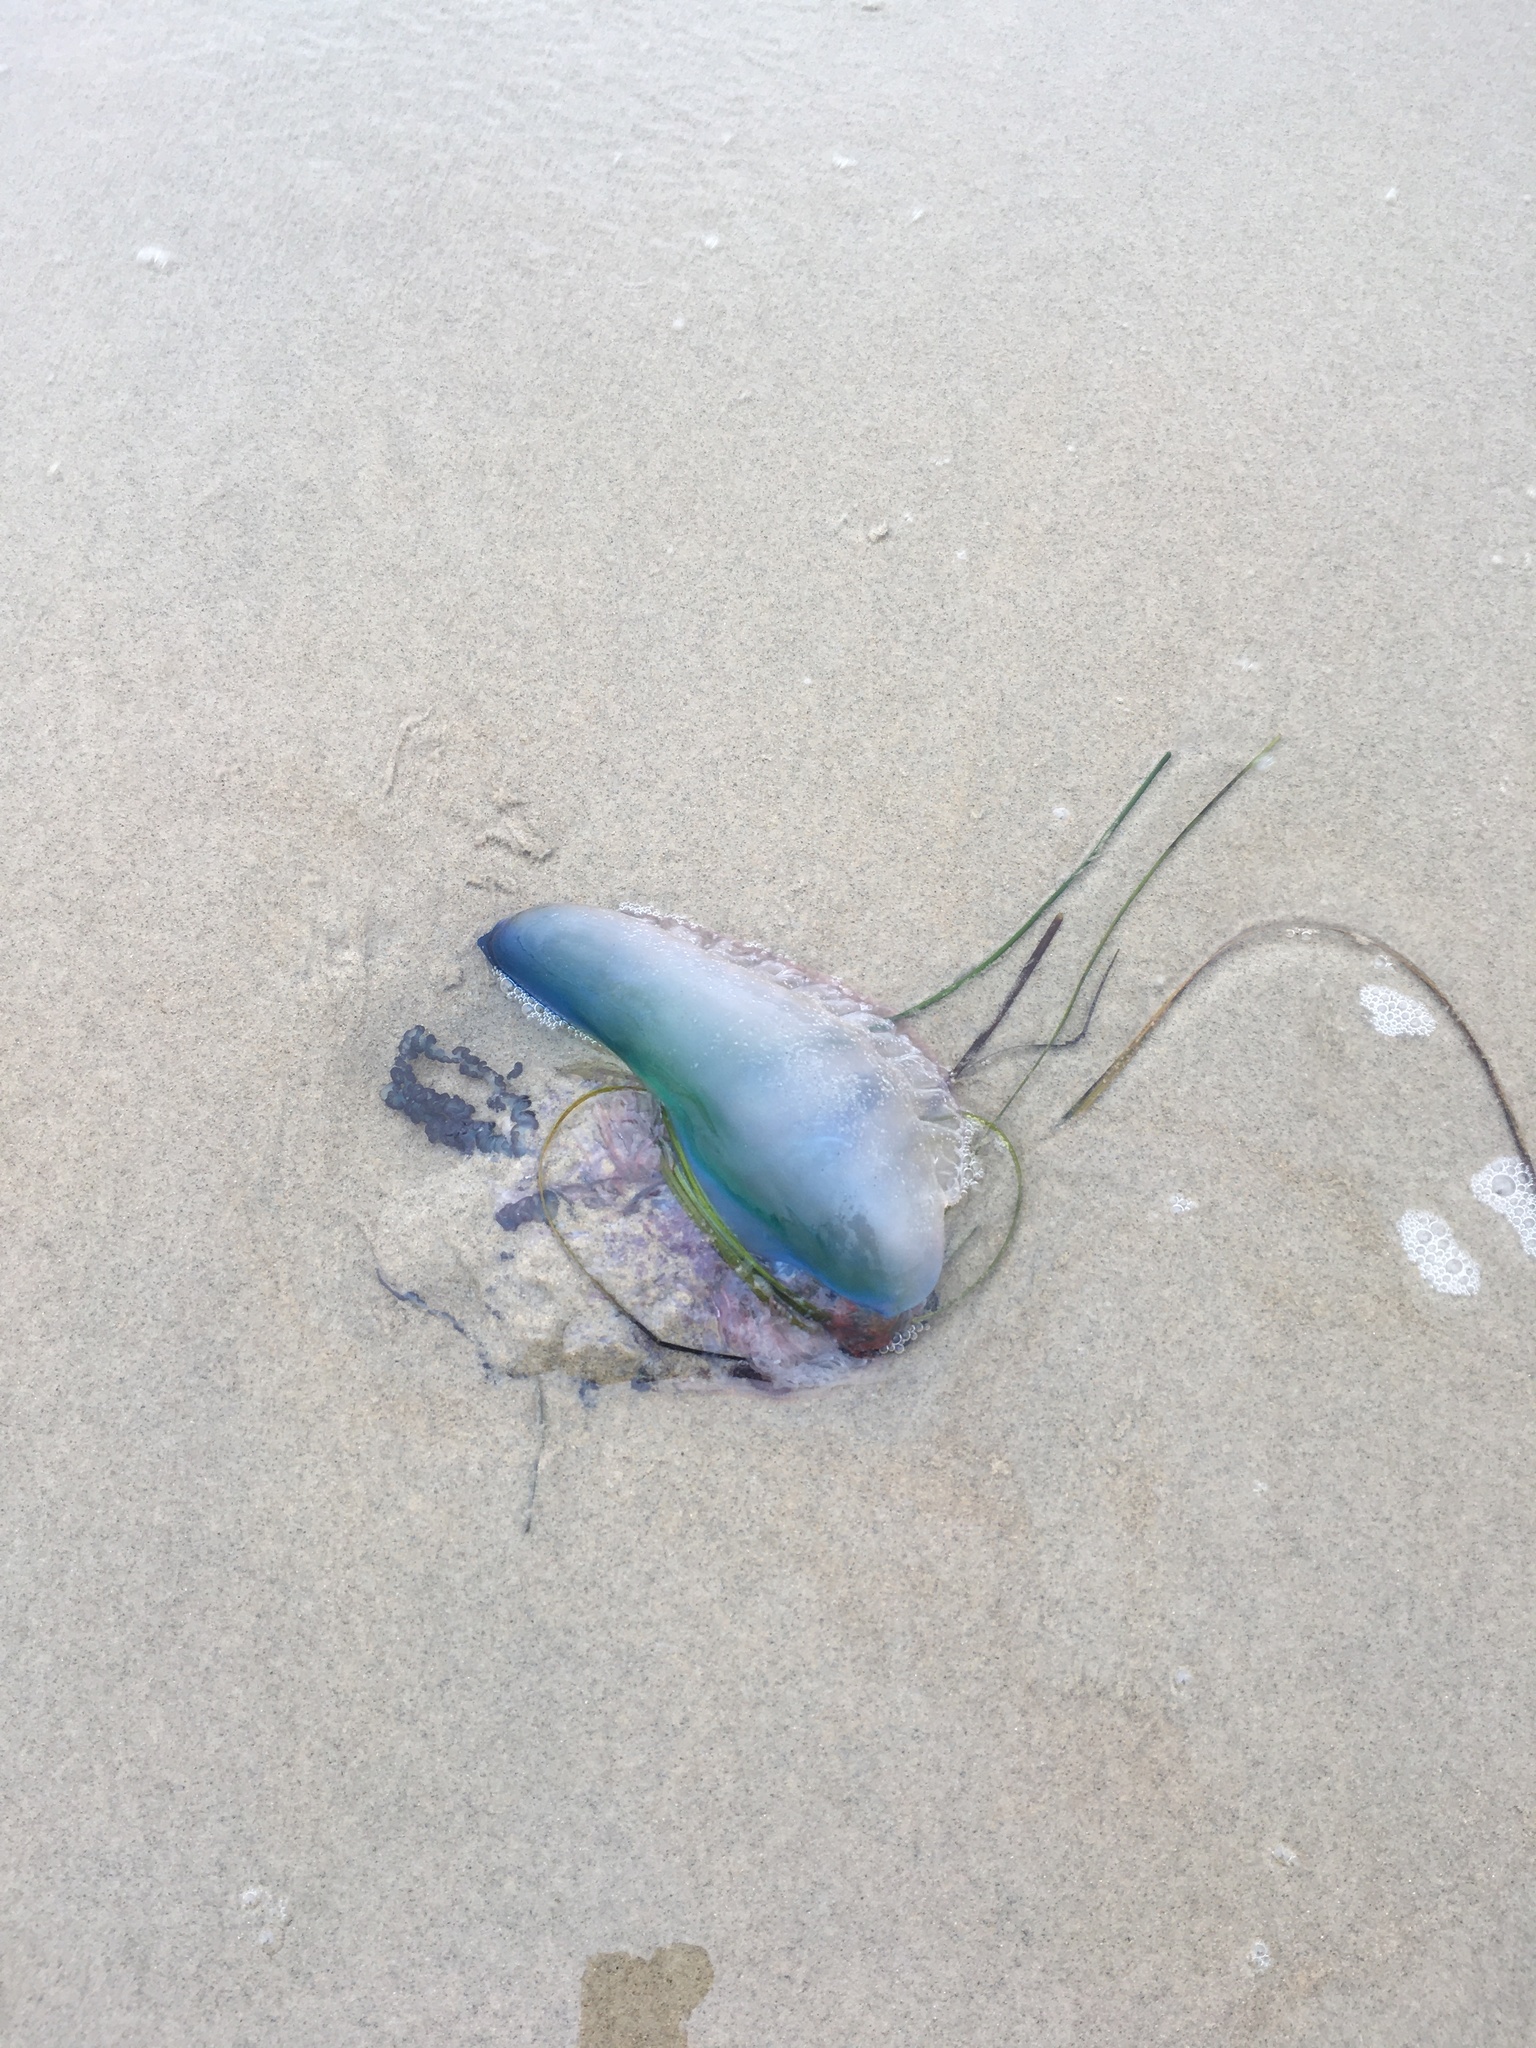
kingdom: Animalia
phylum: Cnidaria
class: Hydrozoa
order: Siphonophorae
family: Physaliidae
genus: Physalia
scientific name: Physalia physalis
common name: Portuguese man-of-war
